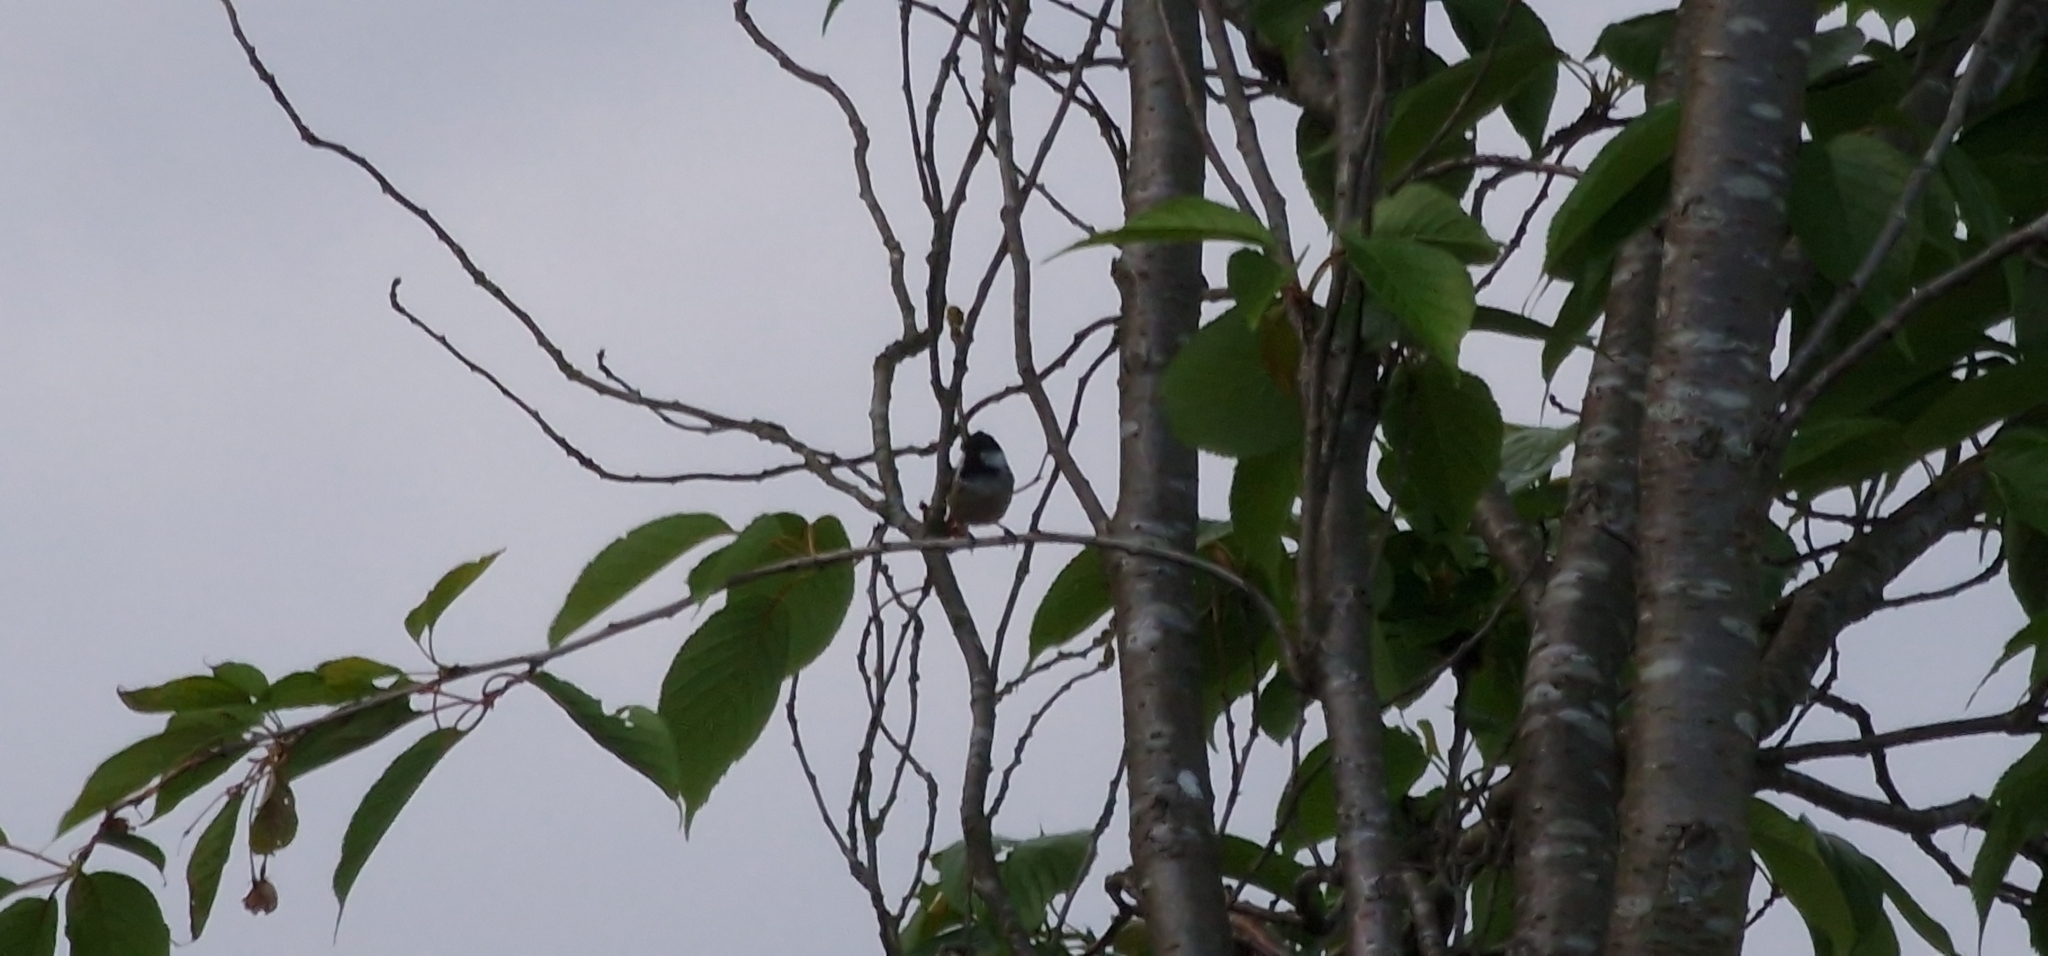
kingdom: Animalia
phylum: Chordata
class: Aves
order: Passeriformes
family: Paridae
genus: Periparus
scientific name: Periparus ater
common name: Coal tit
